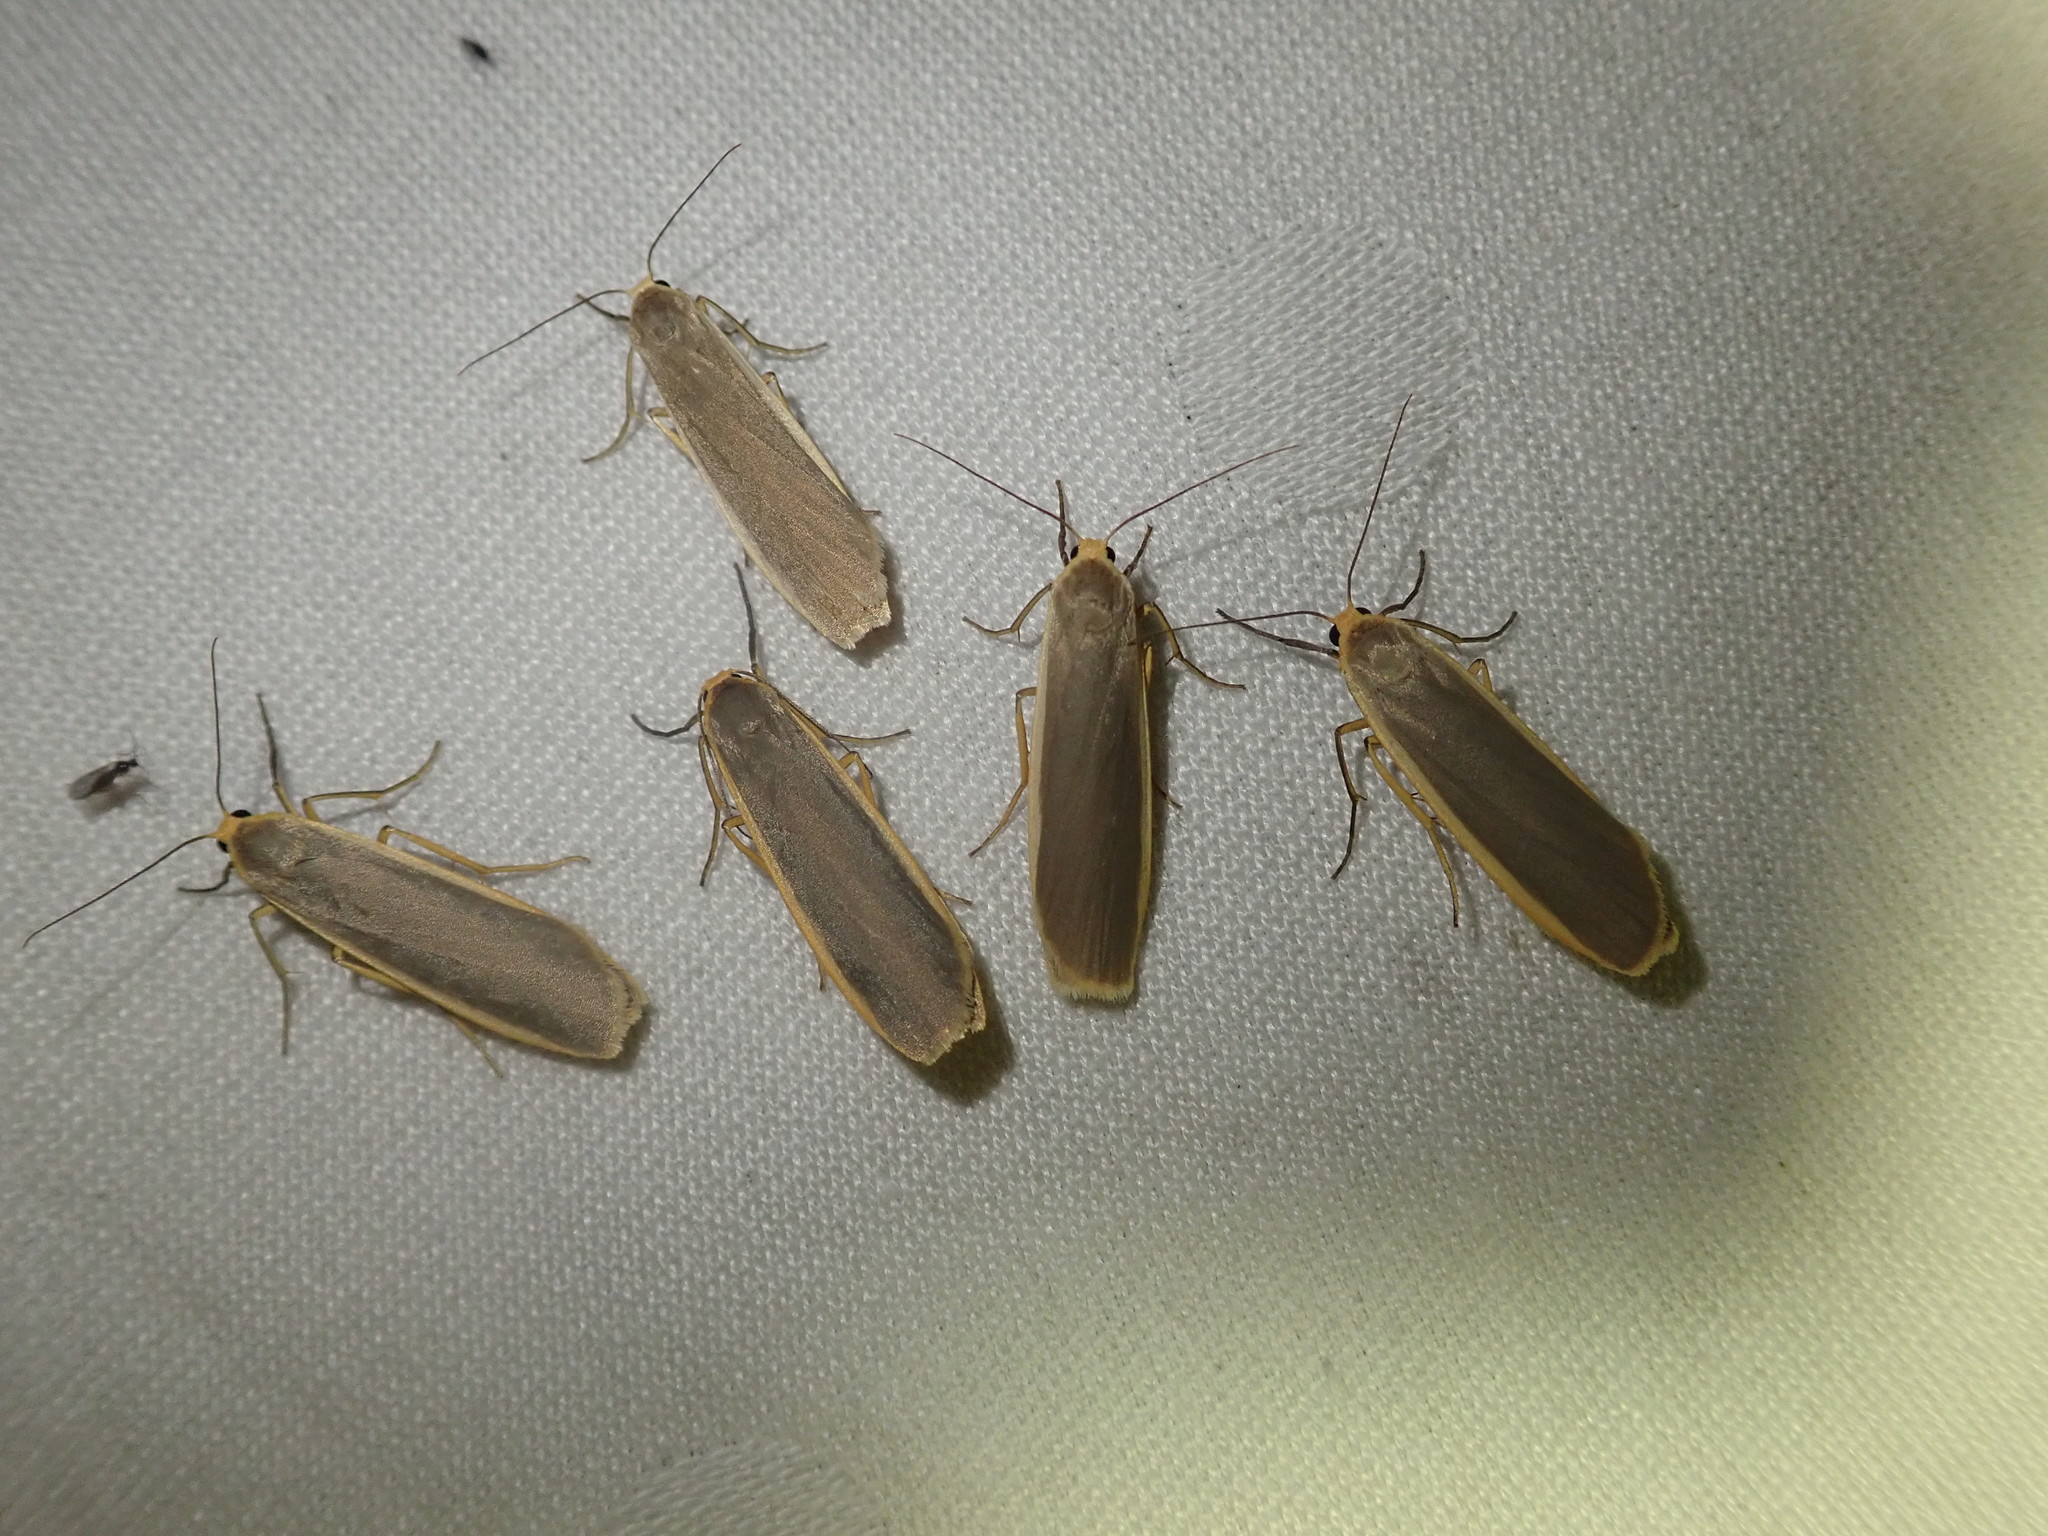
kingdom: Animalia
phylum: Arthropoda
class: Insecta
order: Lepidoptera
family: Erebidae
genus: Nyea
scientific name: Nyea lurideola
